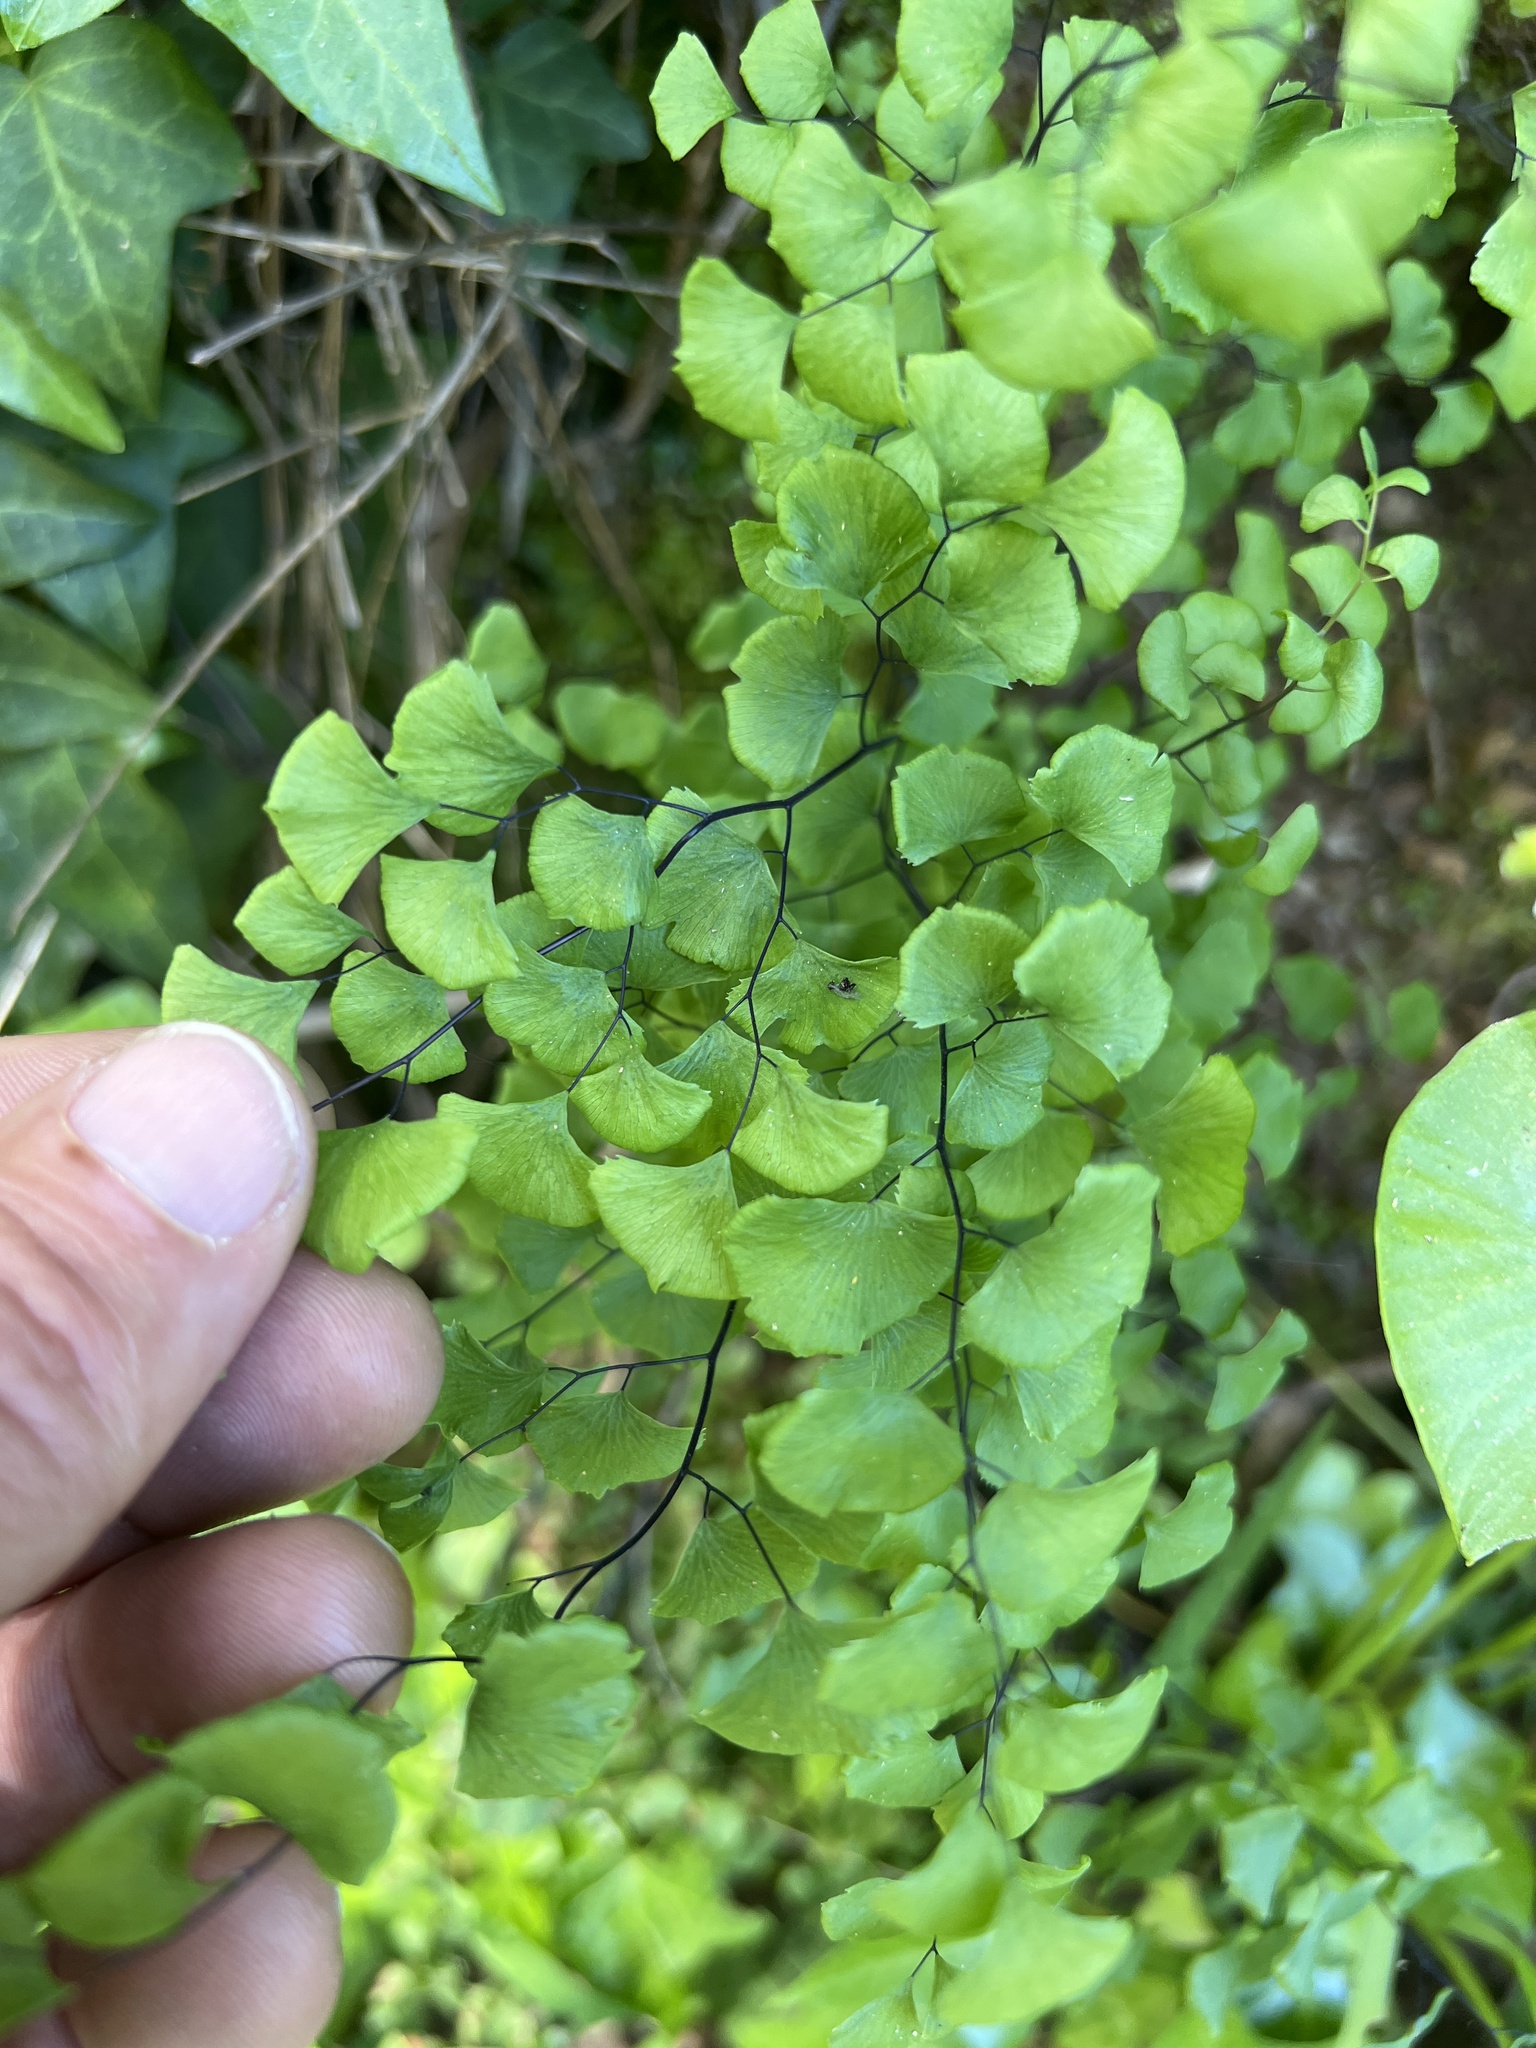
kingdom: Plantae
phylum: Tracheophyta
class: Polypodiopsida
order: Polypodiales
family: Pteridaceae
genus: Adiantum
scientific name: Adiantum jordanii
